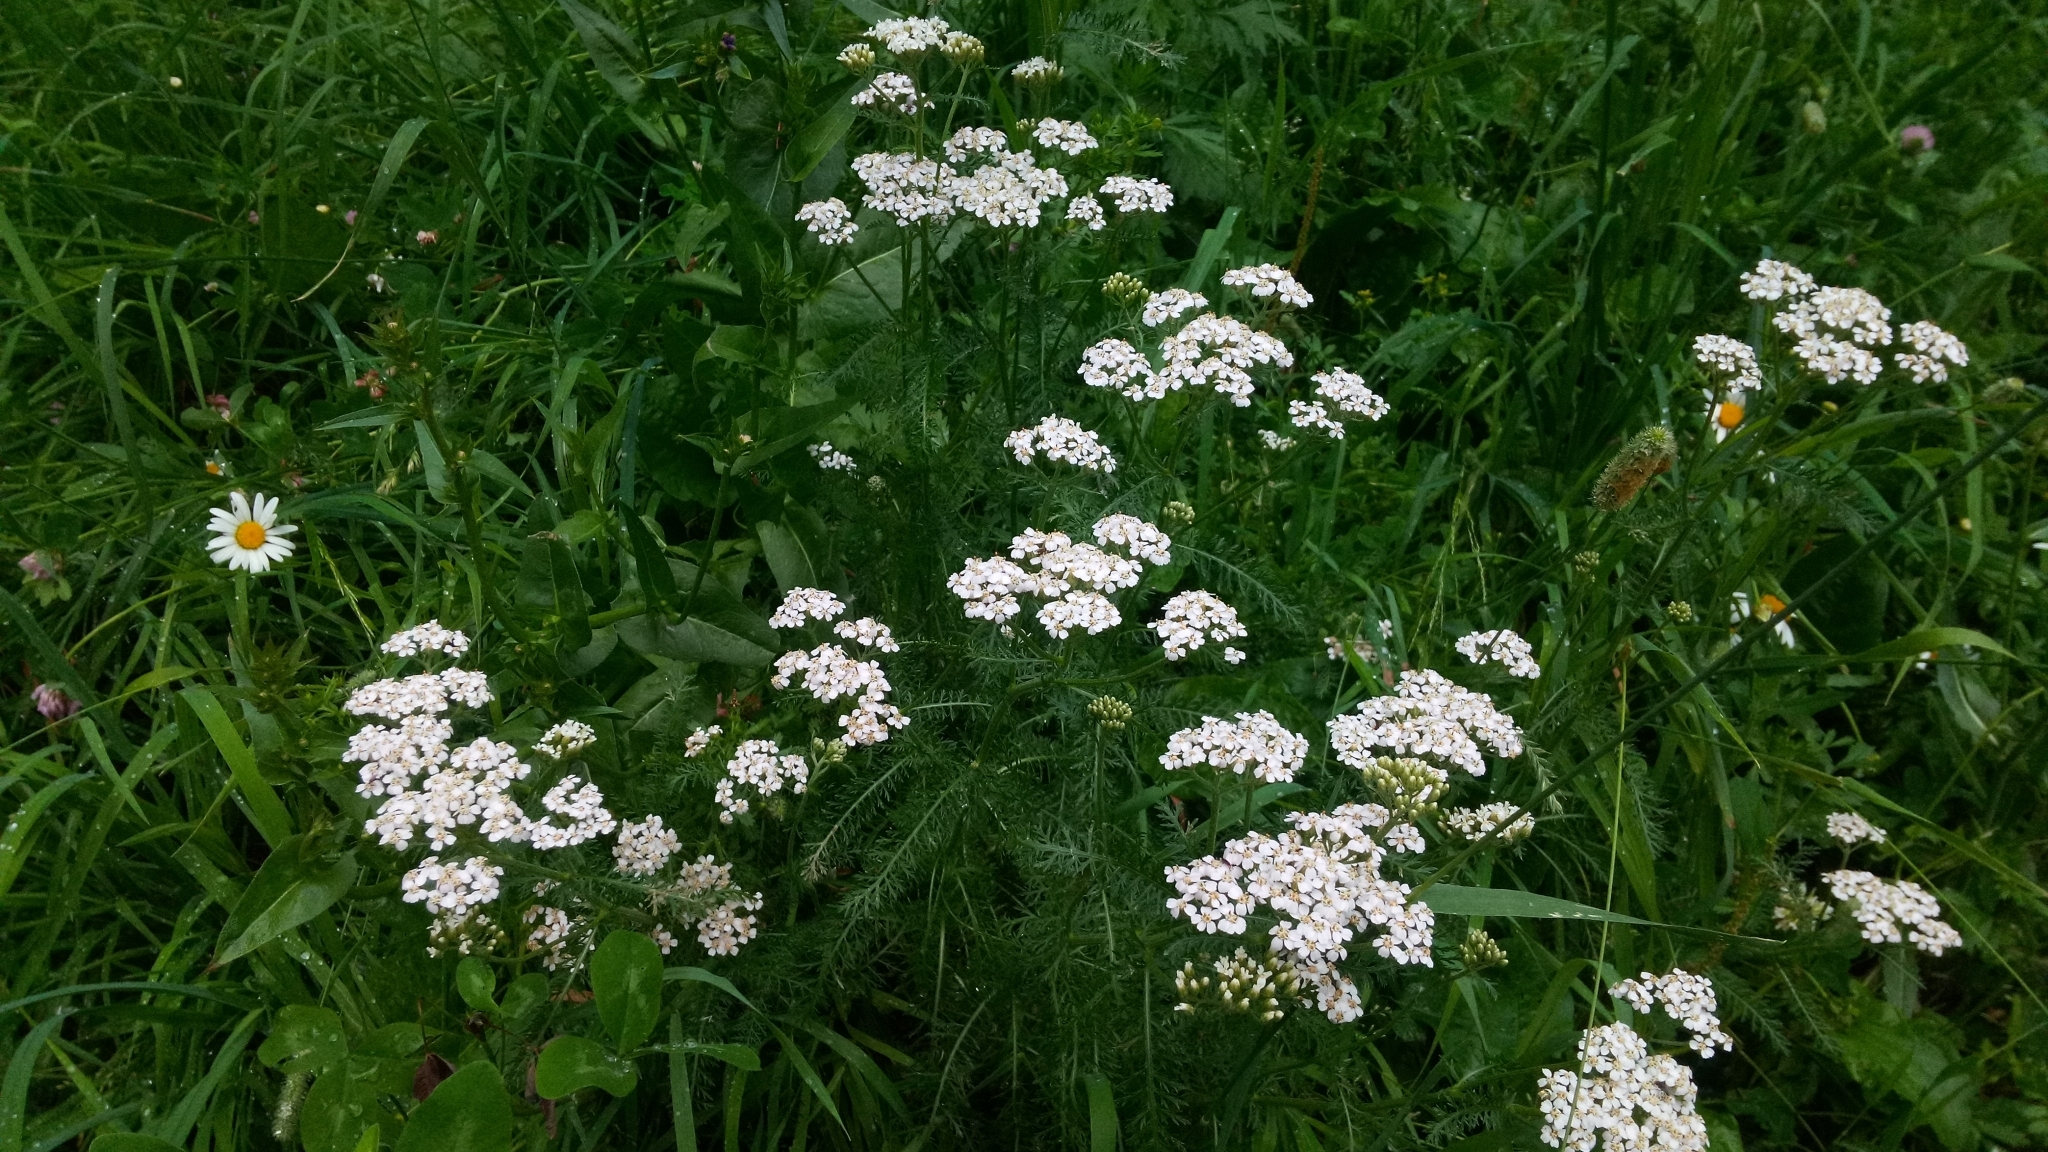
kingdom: Plantae
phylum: Tracheophyta
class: Magnoliopsida
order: Asterales
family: Asteraceae
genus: Achillea
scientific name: Achillea millefolium
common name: Yarrow
